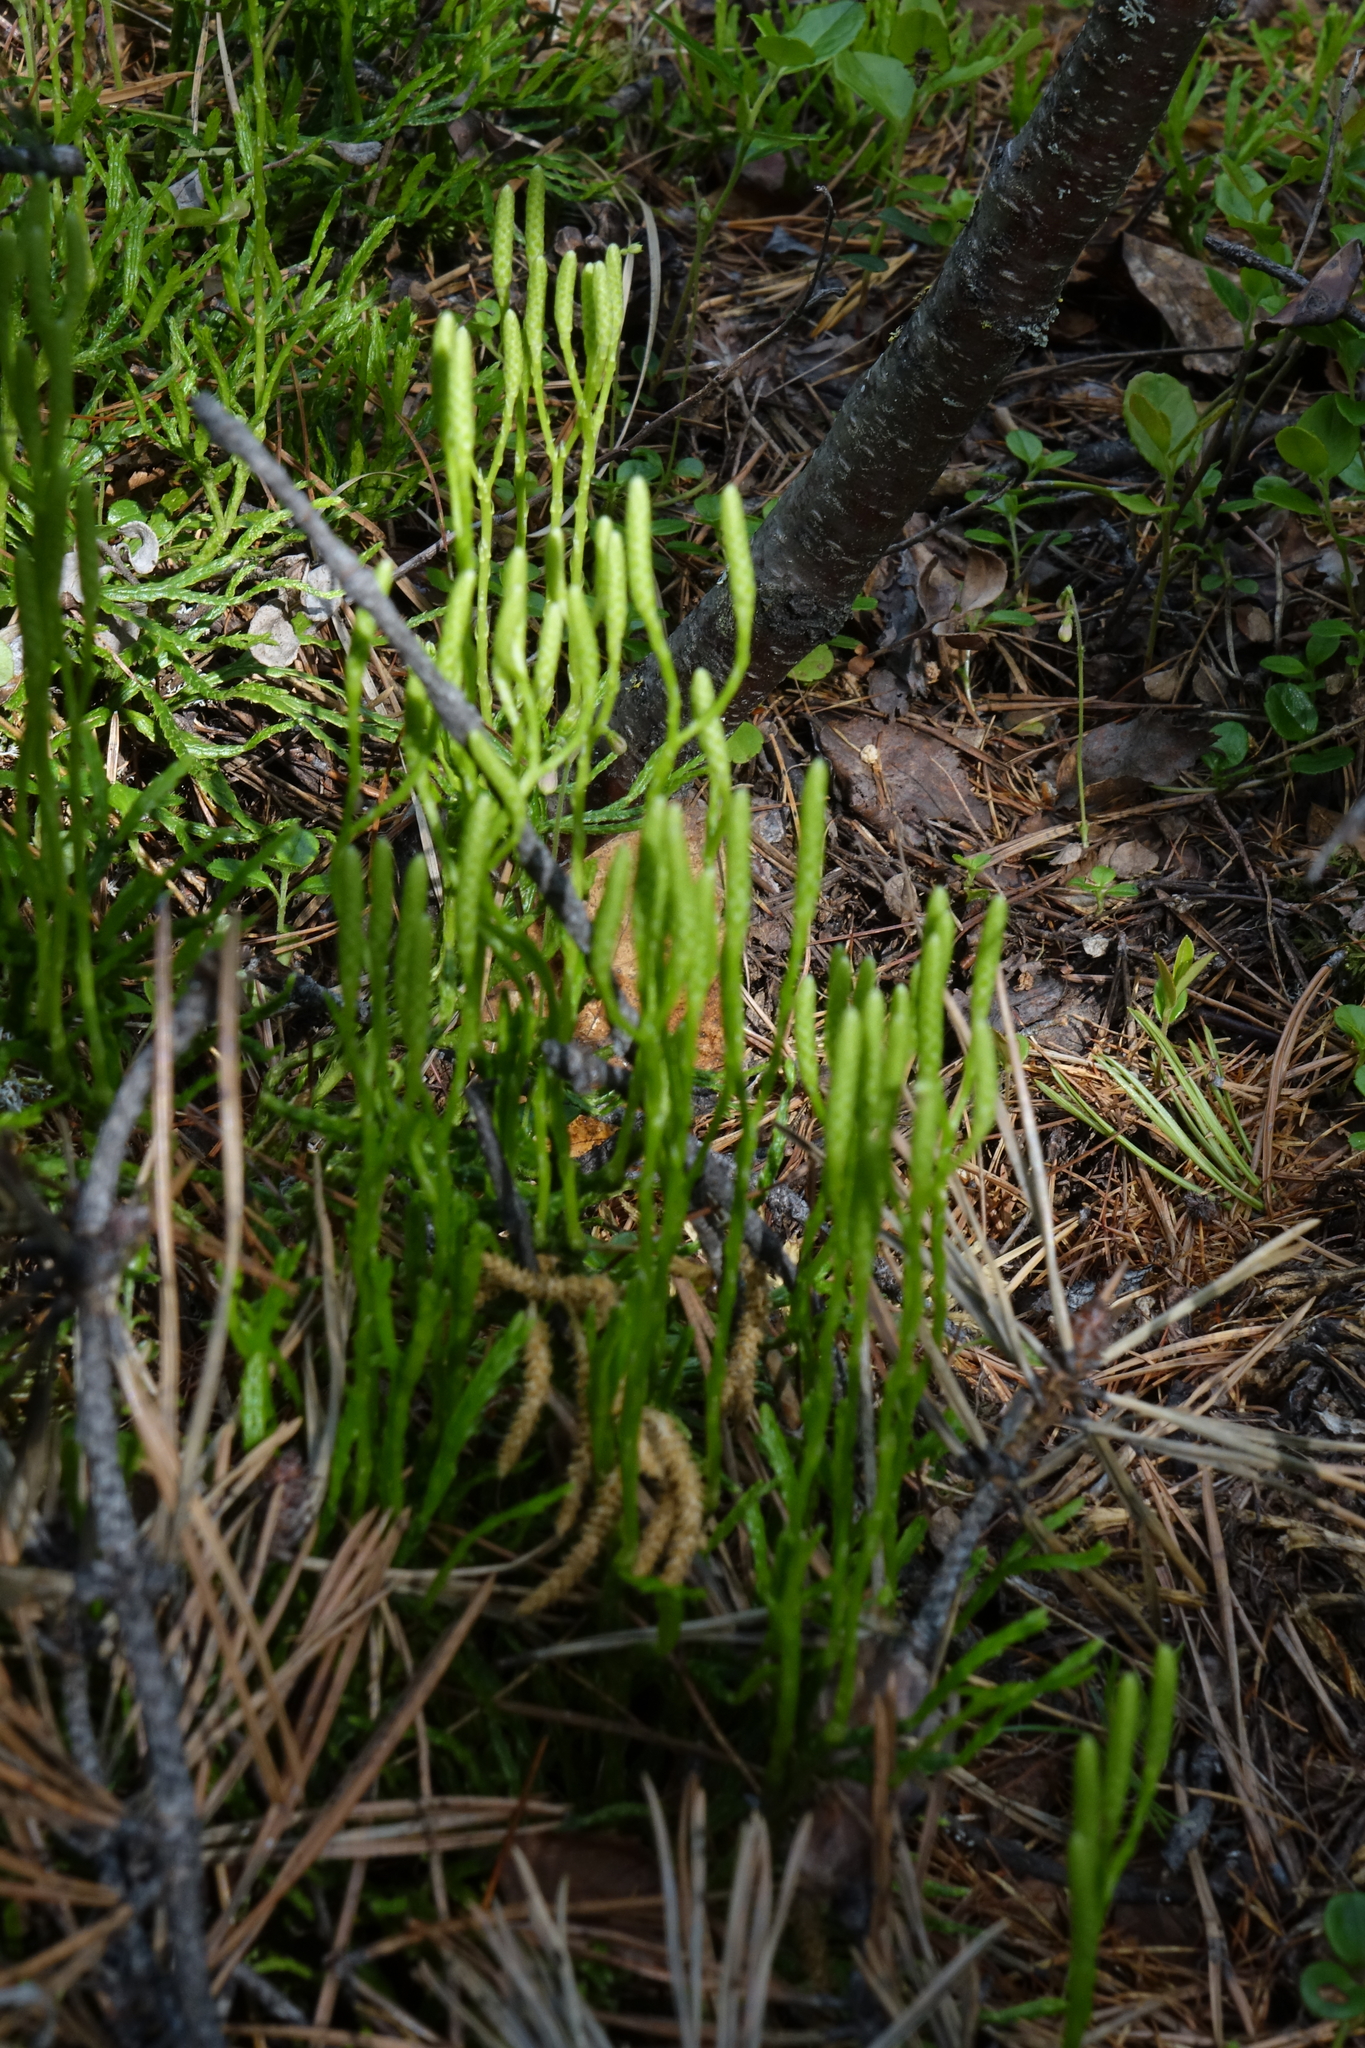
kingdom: Plantae
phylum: Tracheophyta
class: Lycopodiopsida
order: Lycopodiales
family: Lycopodiaceae
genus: Diphasiastrum
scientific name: Diphasiastrum complanatum
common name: Northern running-pine
